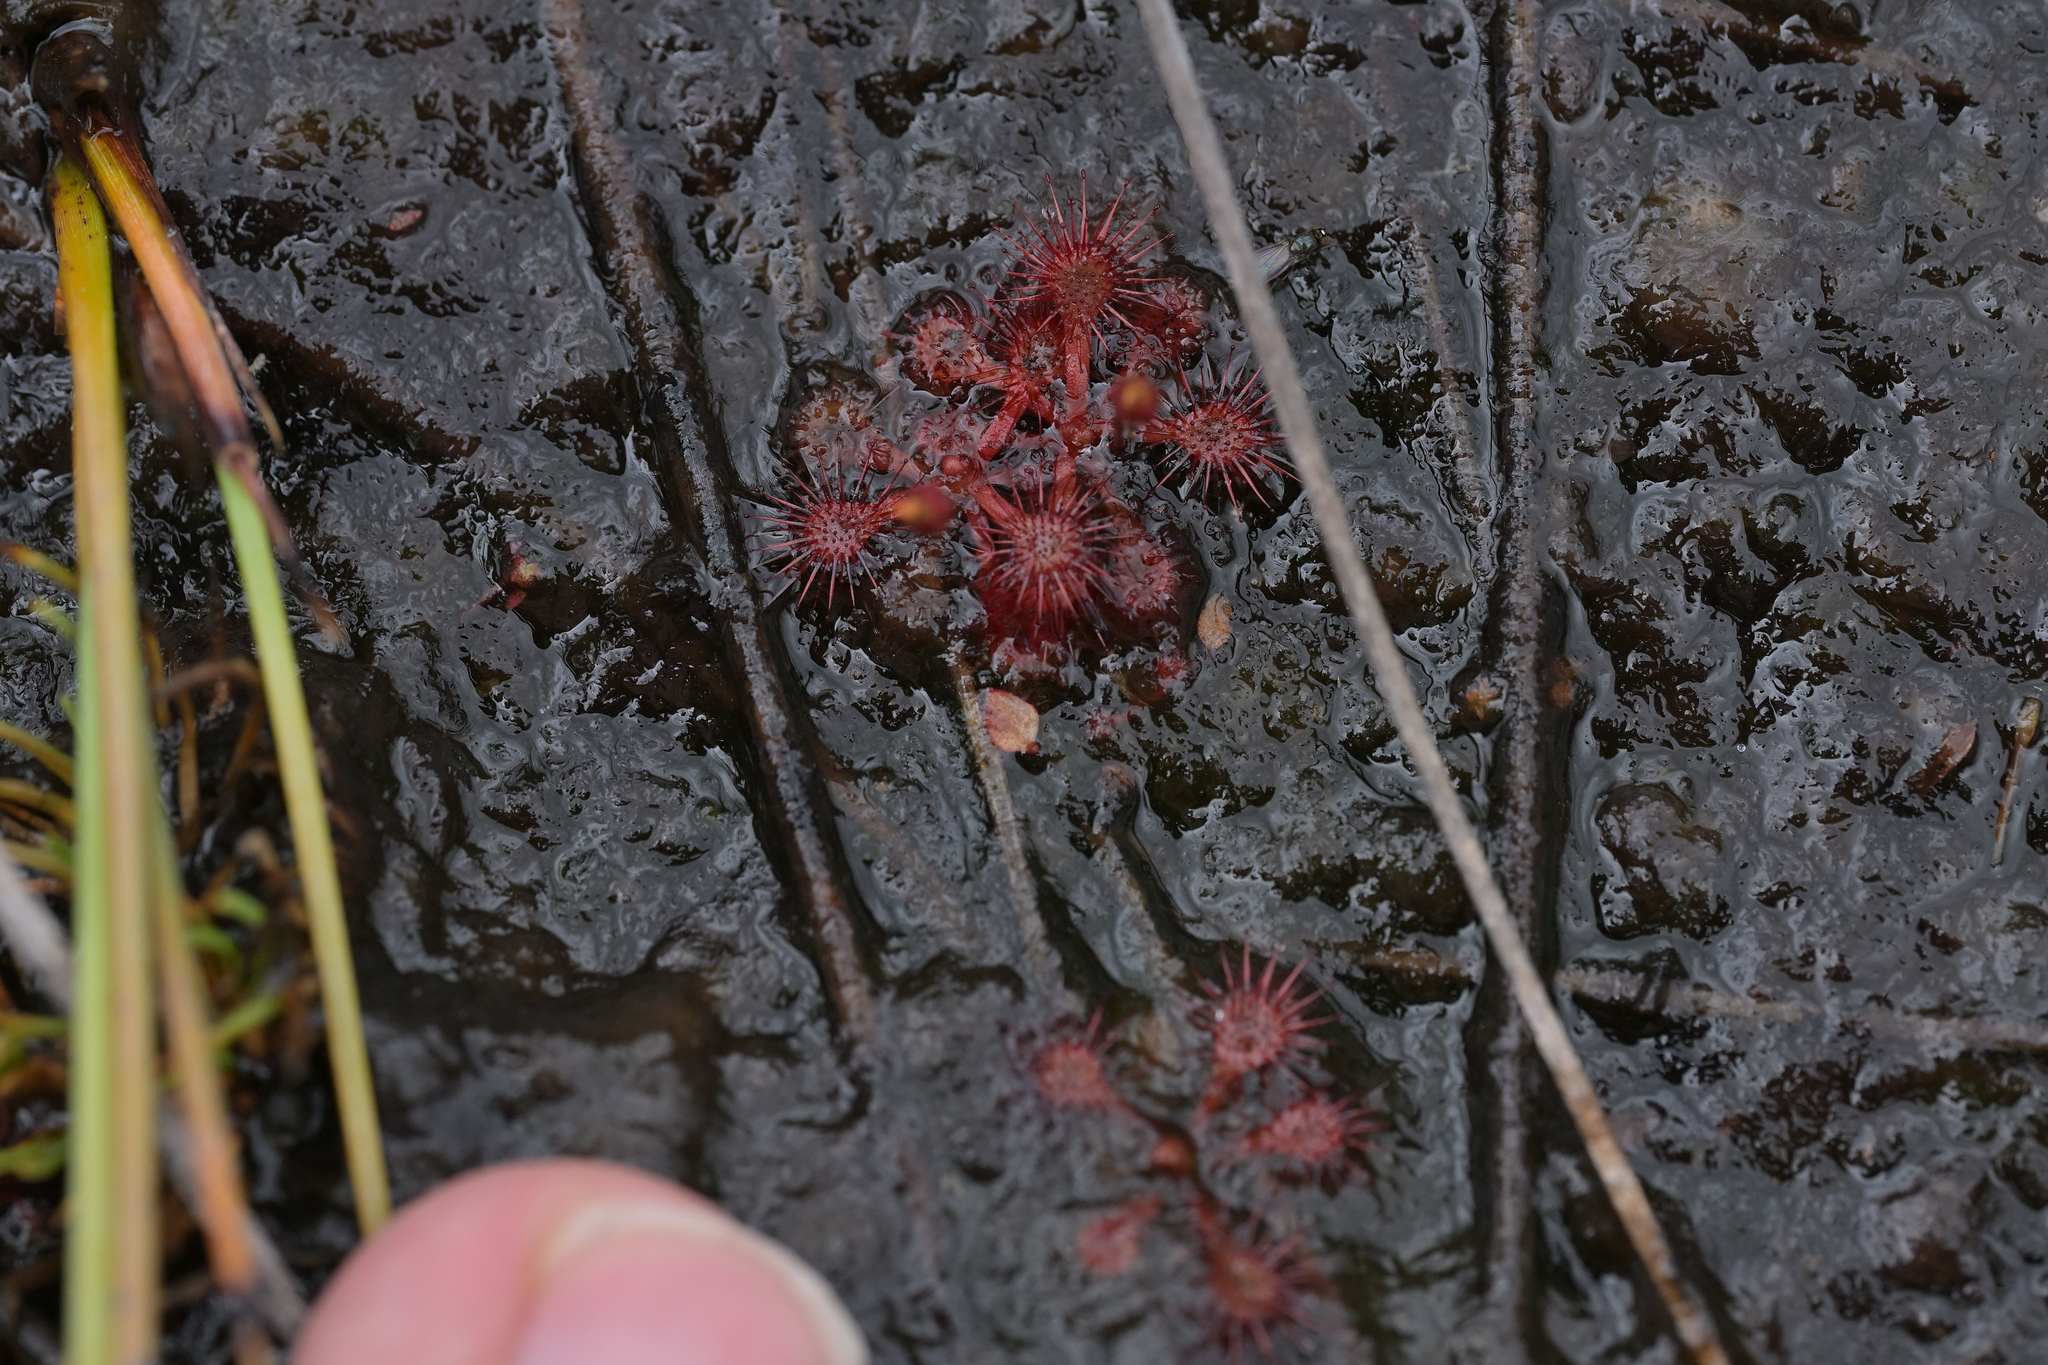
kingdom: Plantae
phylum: Tracheophyta
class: Magnoliopsida
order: Caryophyllales
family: Droseraceae
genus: Drosera
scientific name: Drosera spatulata
